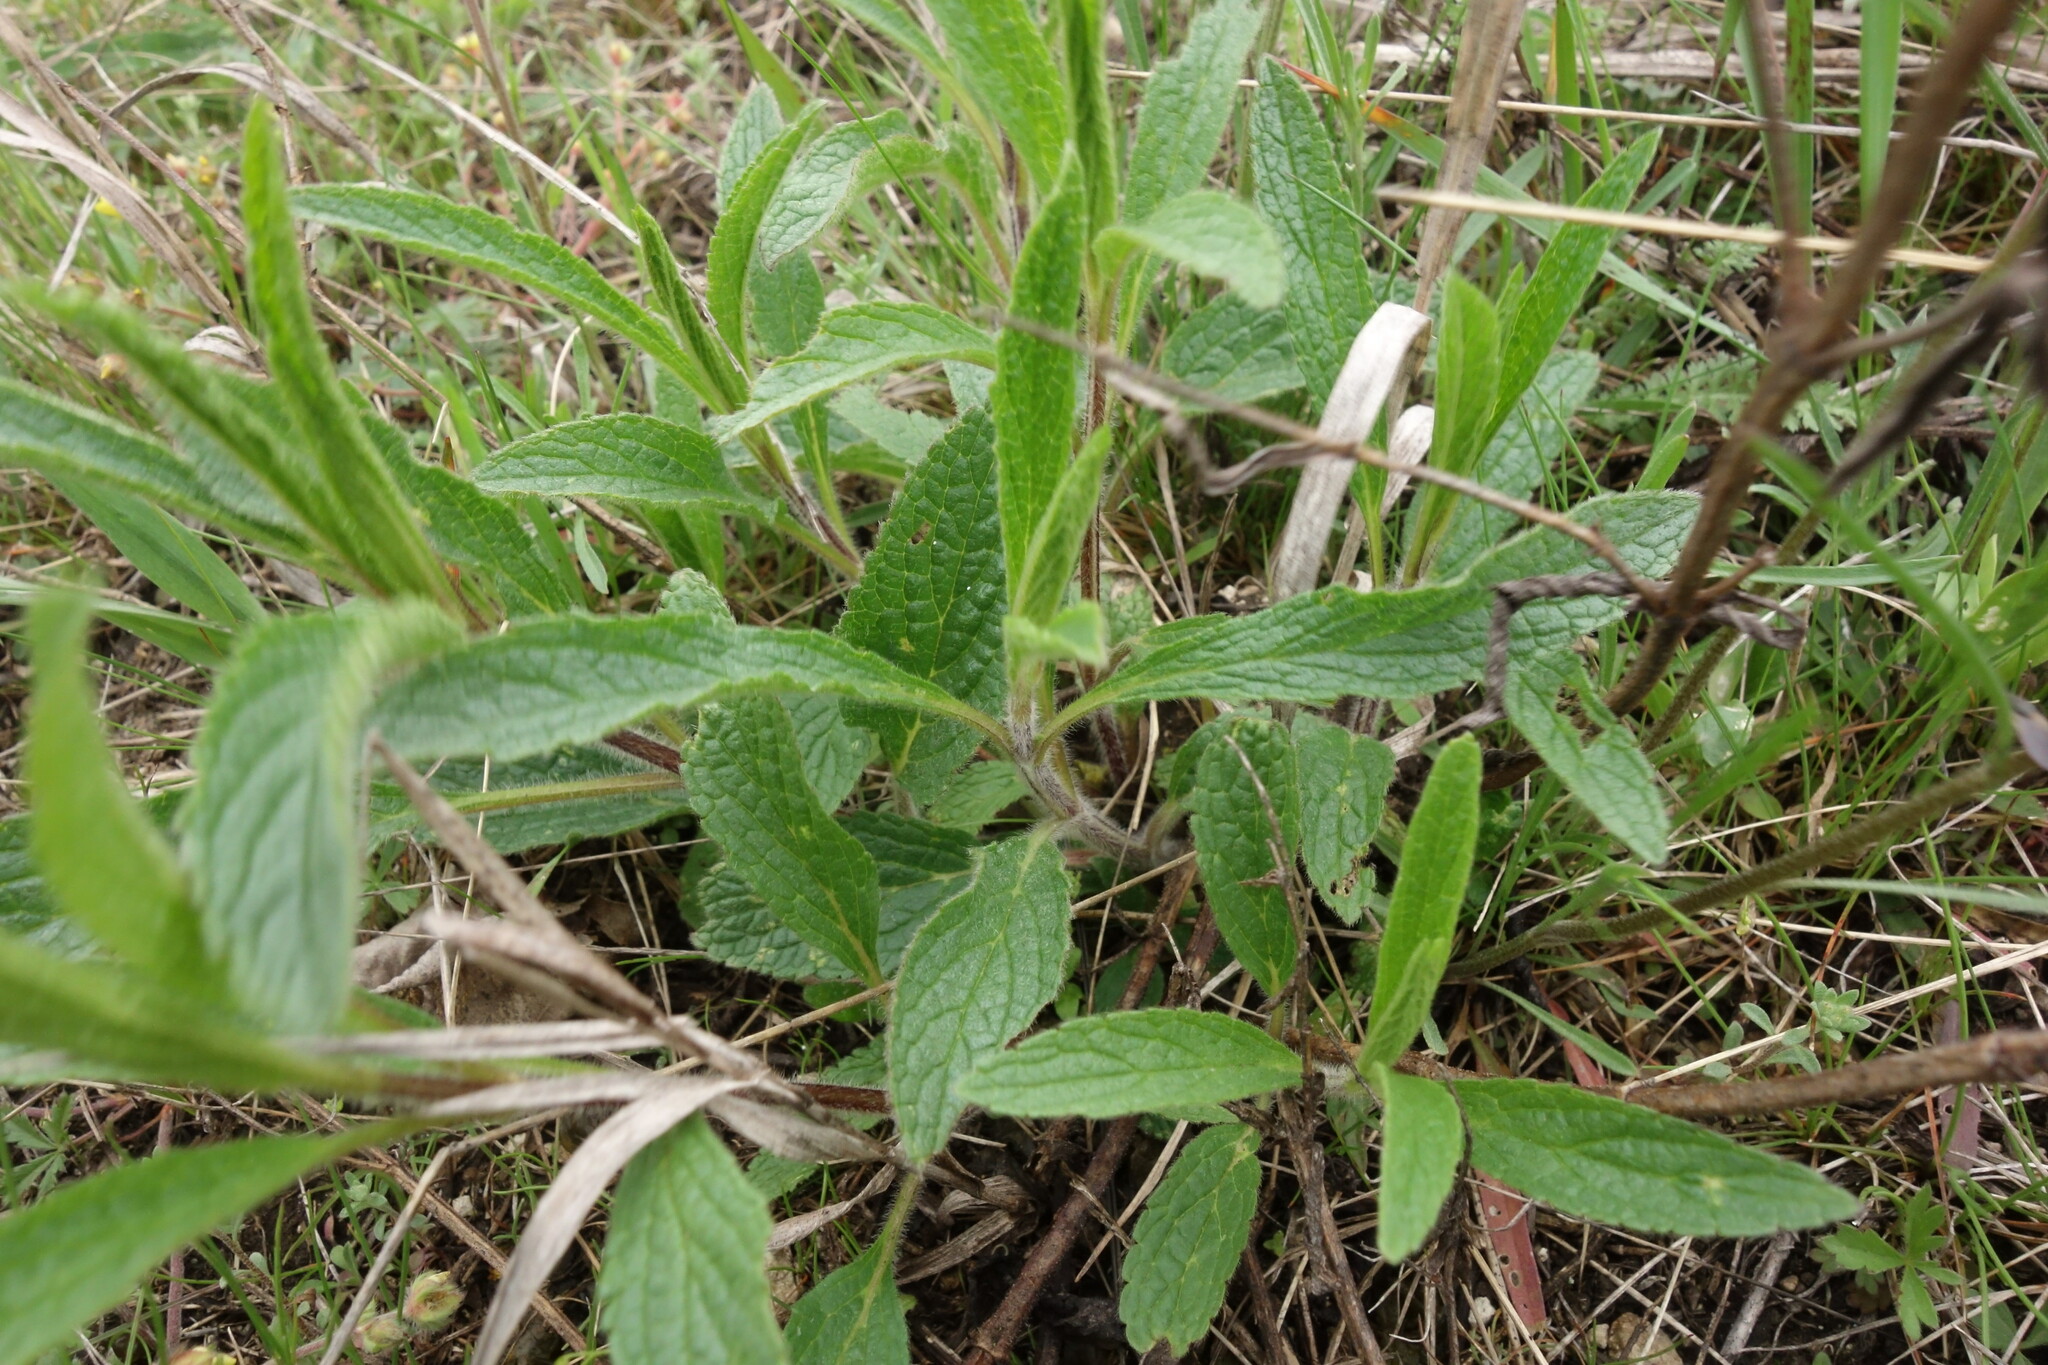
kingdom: Plantae
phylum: Tracheophyta
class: Magnoliopsida
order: Lamiales
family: Lamiaceae
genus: Stachys
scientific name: Stachys recta
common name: Perennial yellow-woundwort
